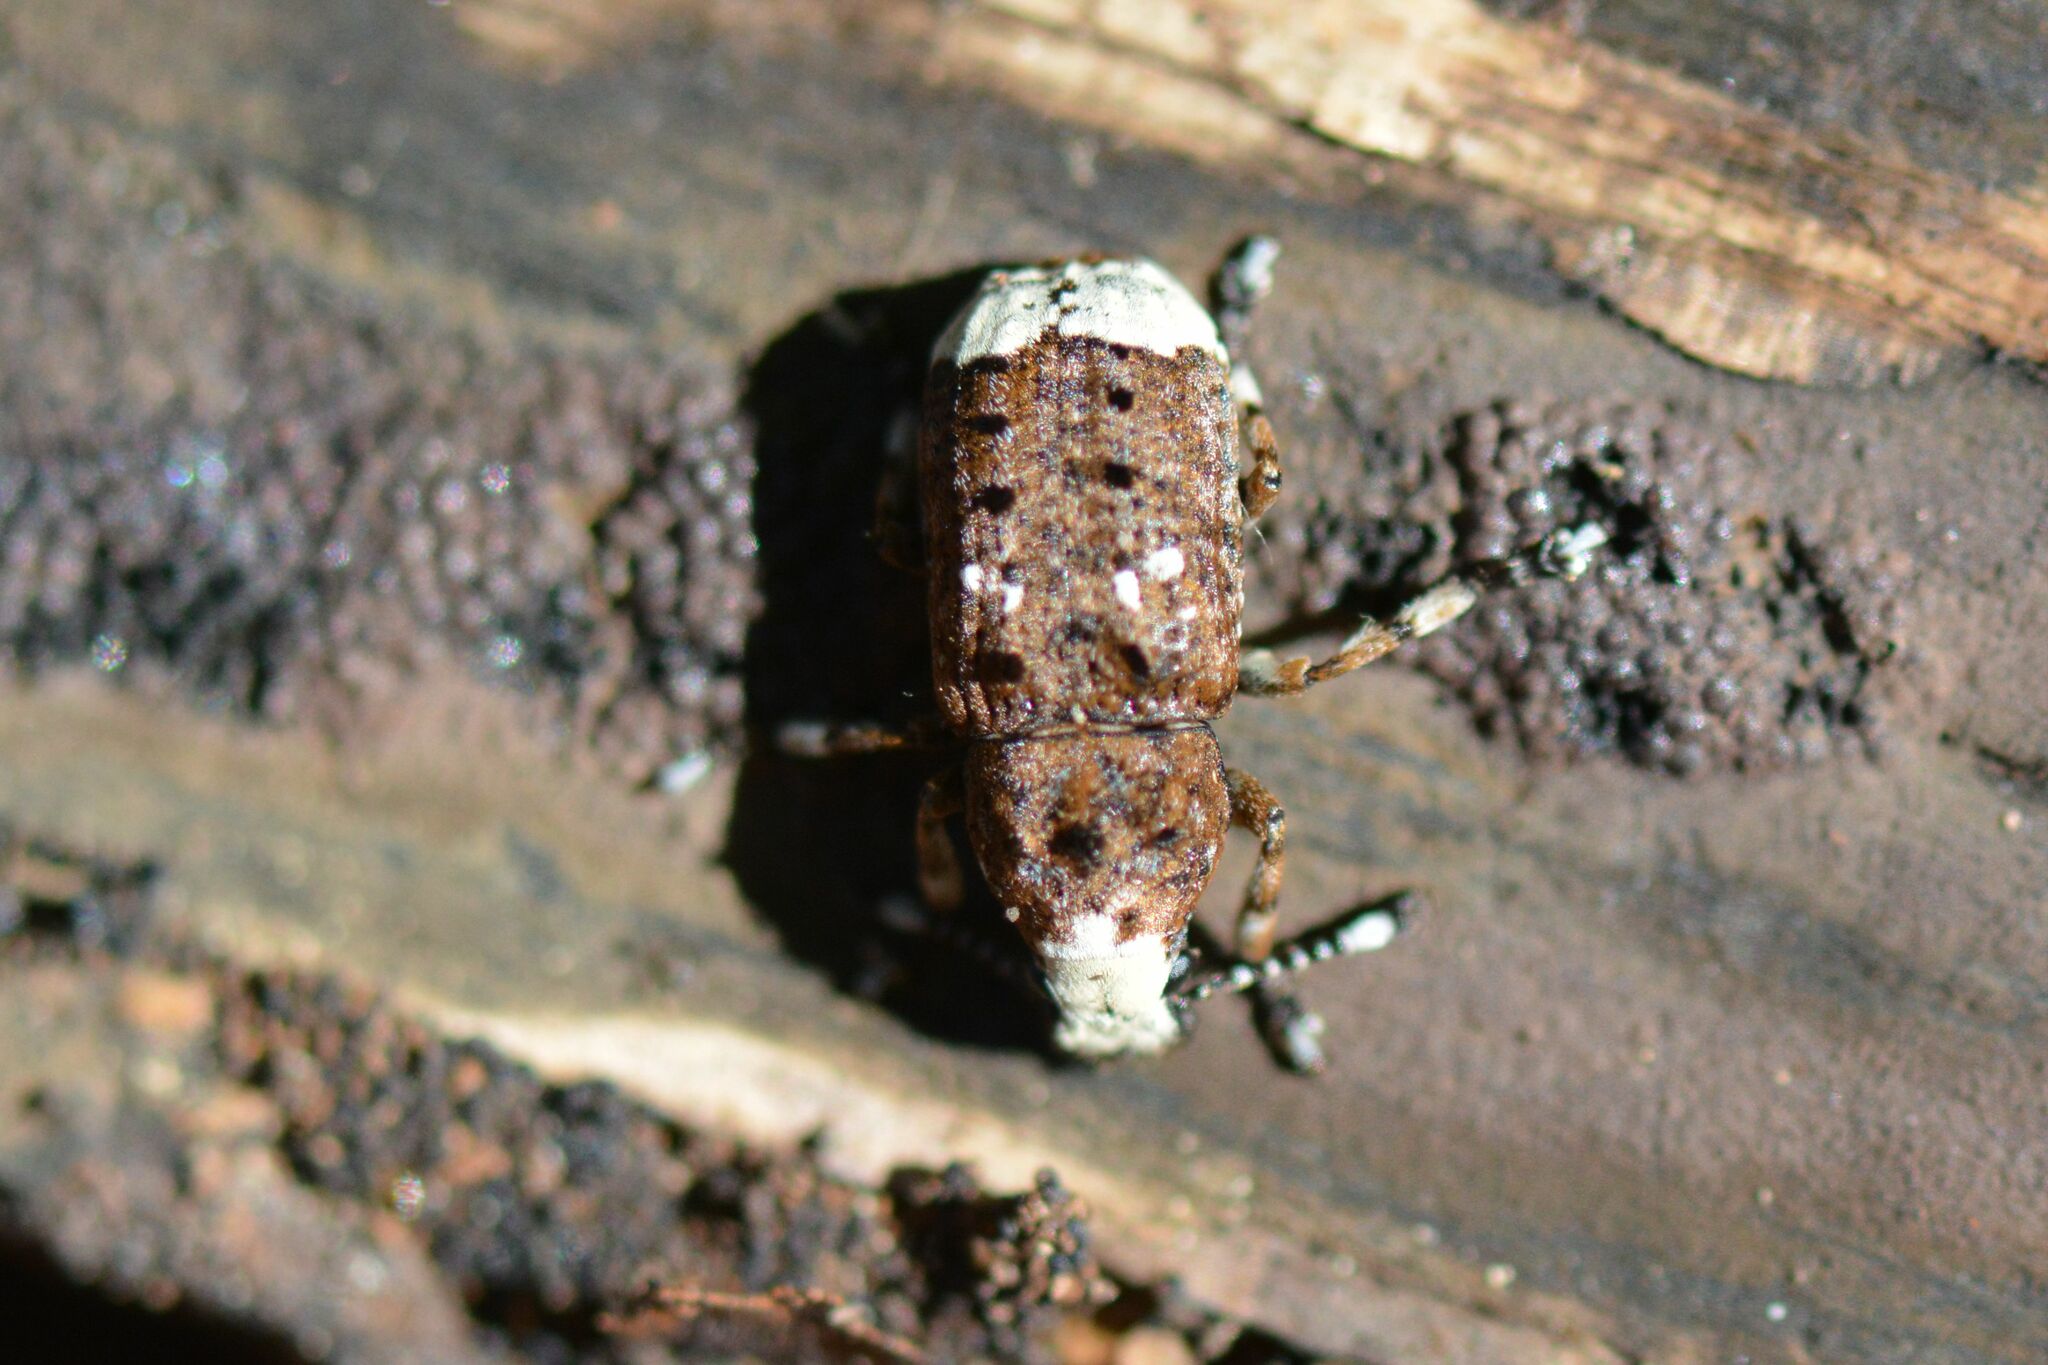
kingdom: Animalia
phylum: Arthropoda
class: Insecta
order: Coleoptera
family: Anthribidae
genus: Platystomos
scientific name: Platystomos albinus
